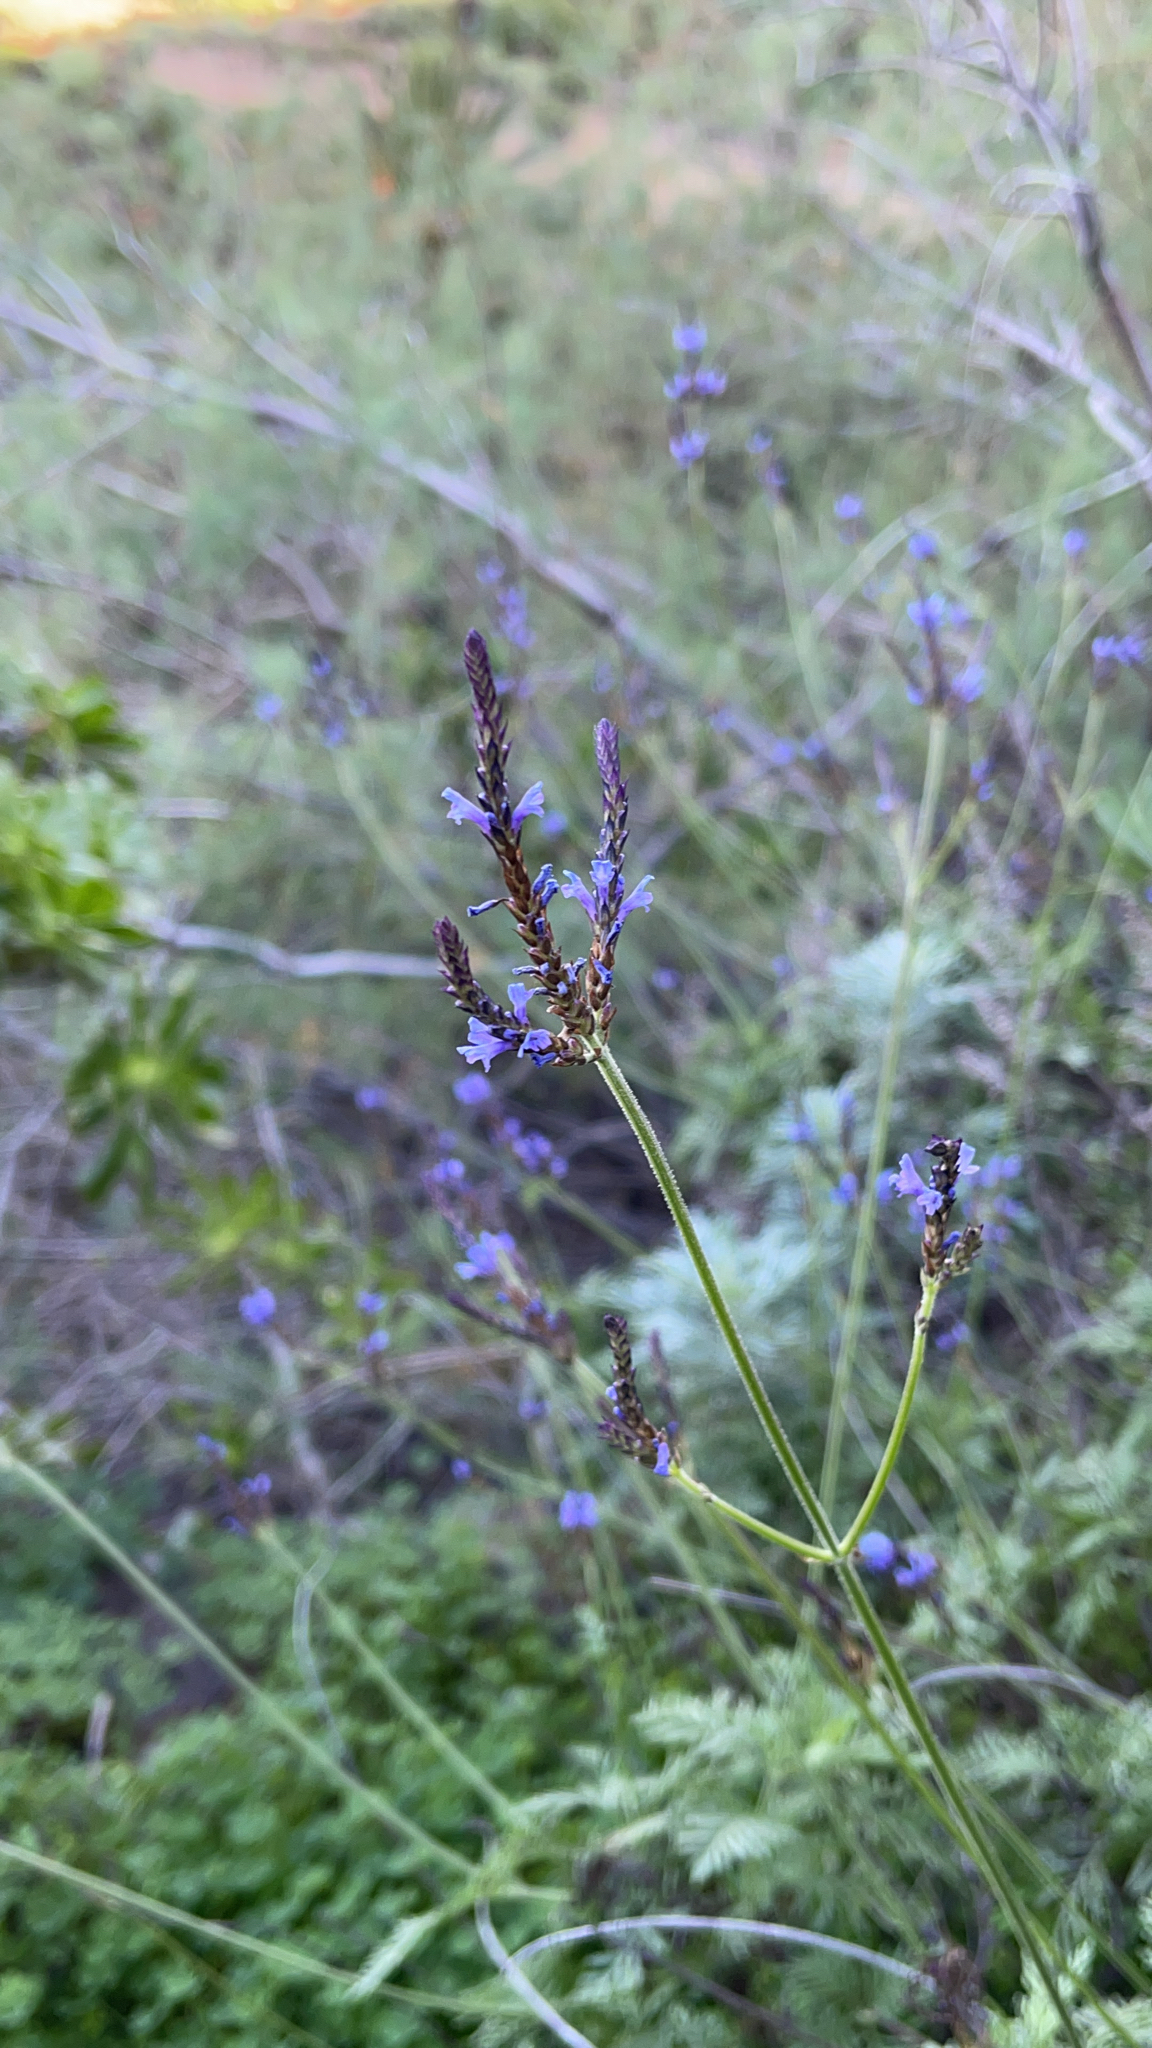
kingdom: Plantae
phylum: Tracheophyta
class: Magnoliopsida
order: Lamiales
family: Lamiaceae
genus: Lavandula
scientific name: Lavandula canariensis
